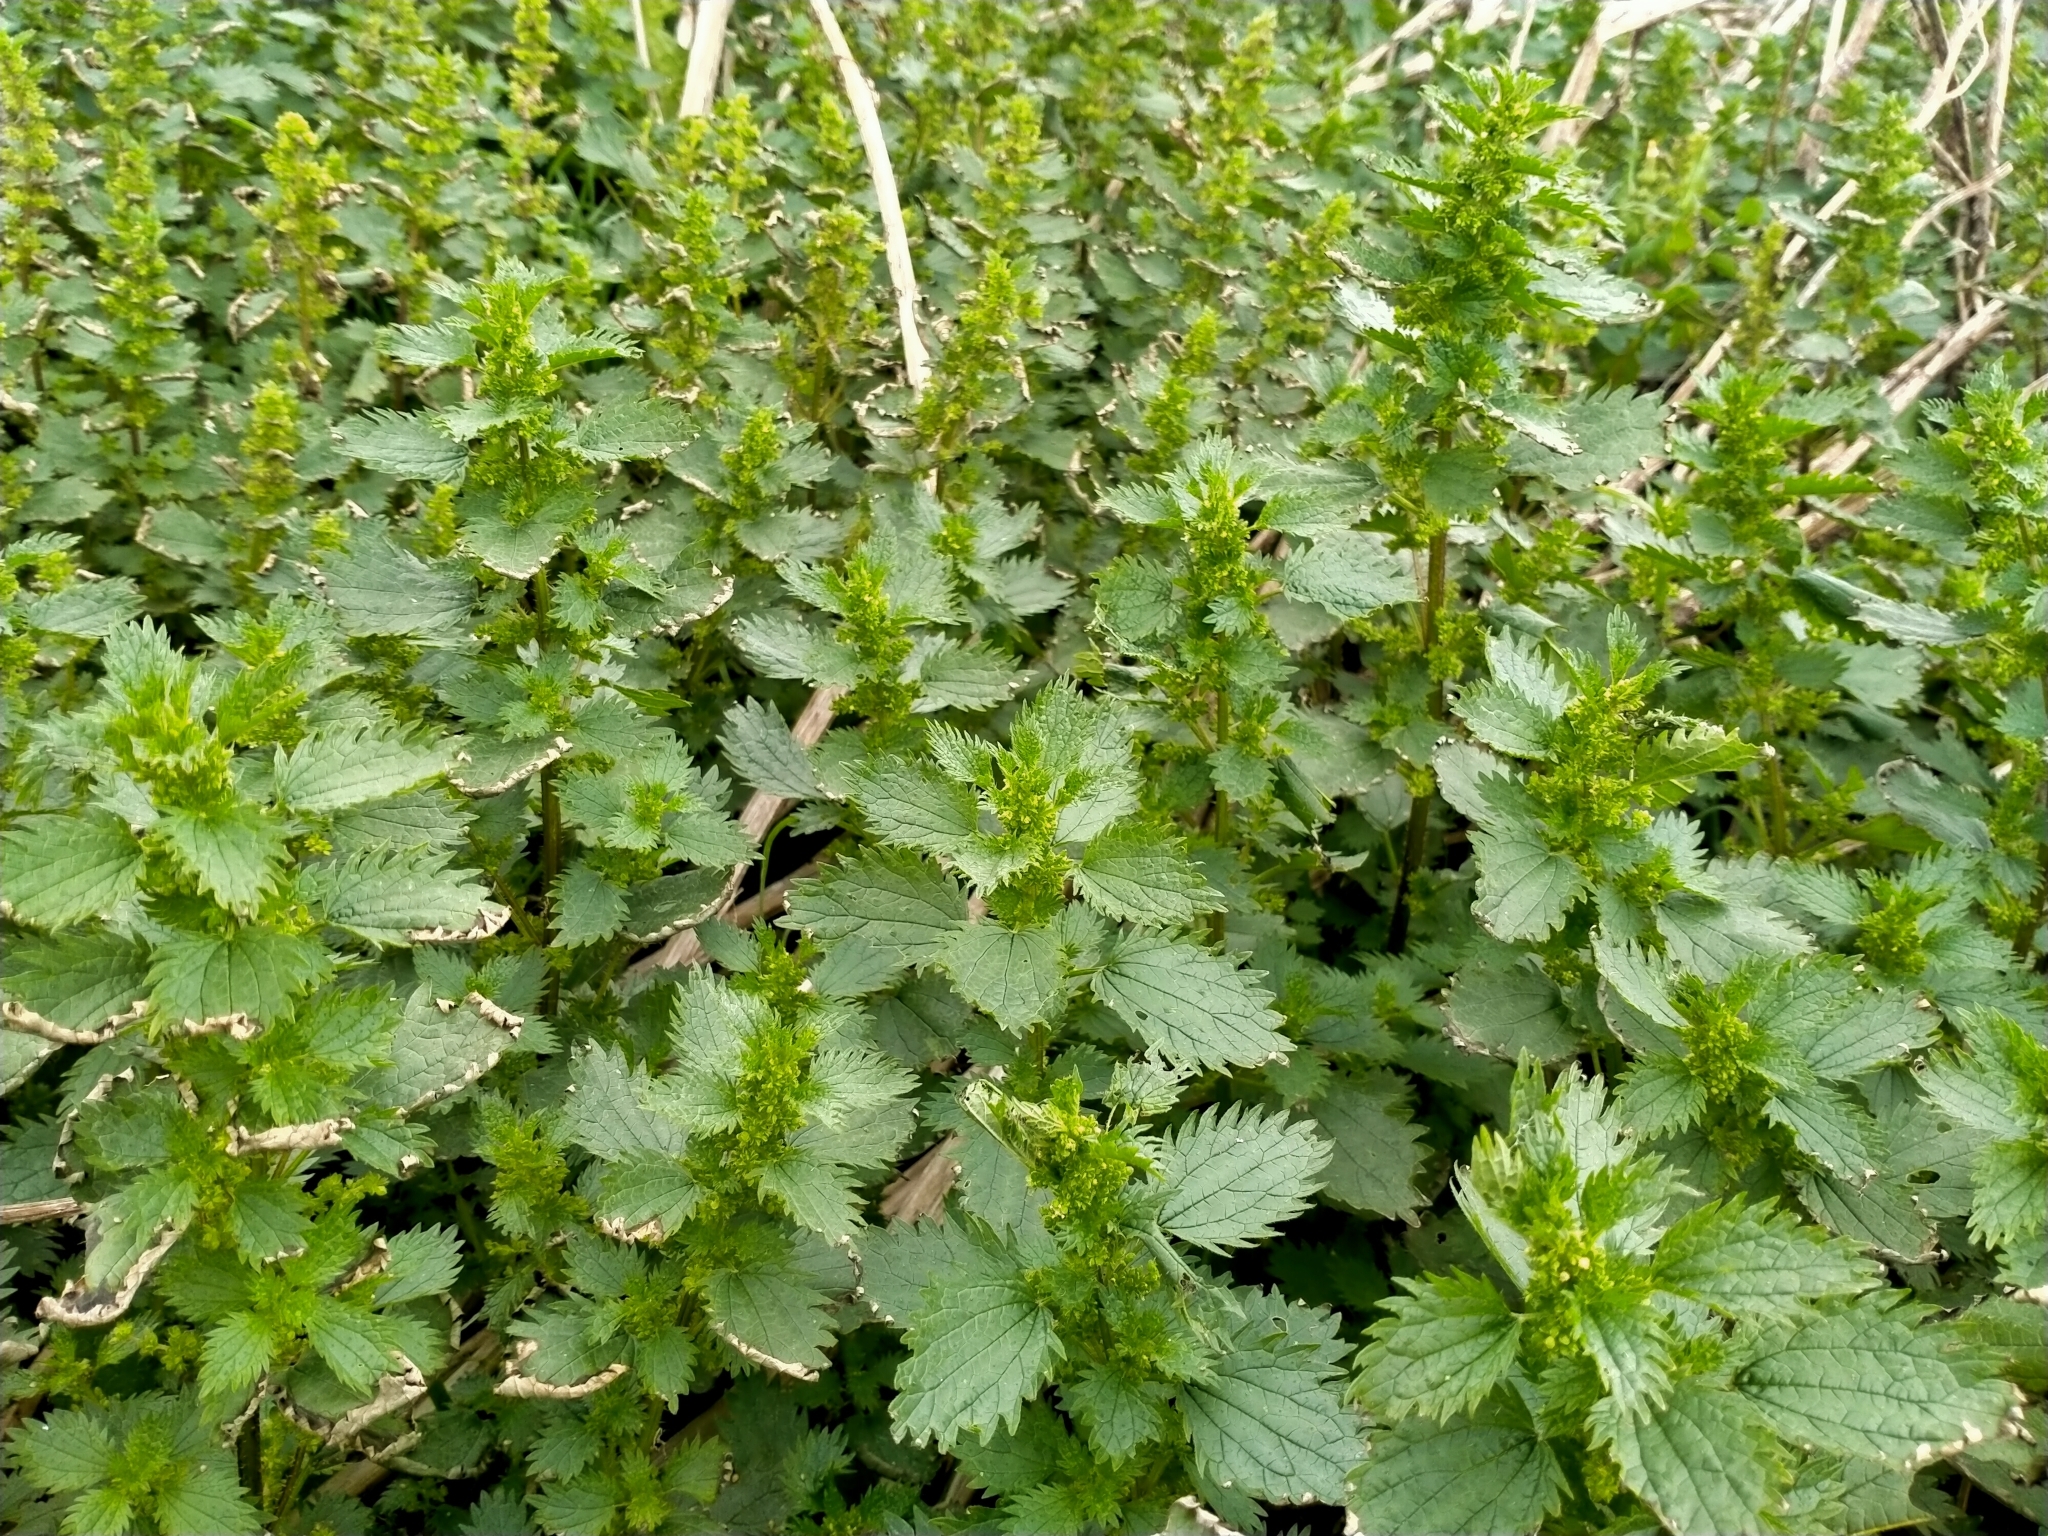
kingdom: Plantae
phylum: Tracheophyta
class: Magnoliopsida
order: Rosales
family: Urticaceae
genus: Urtica
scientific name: Urtica urens
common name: Dwarf nettle
